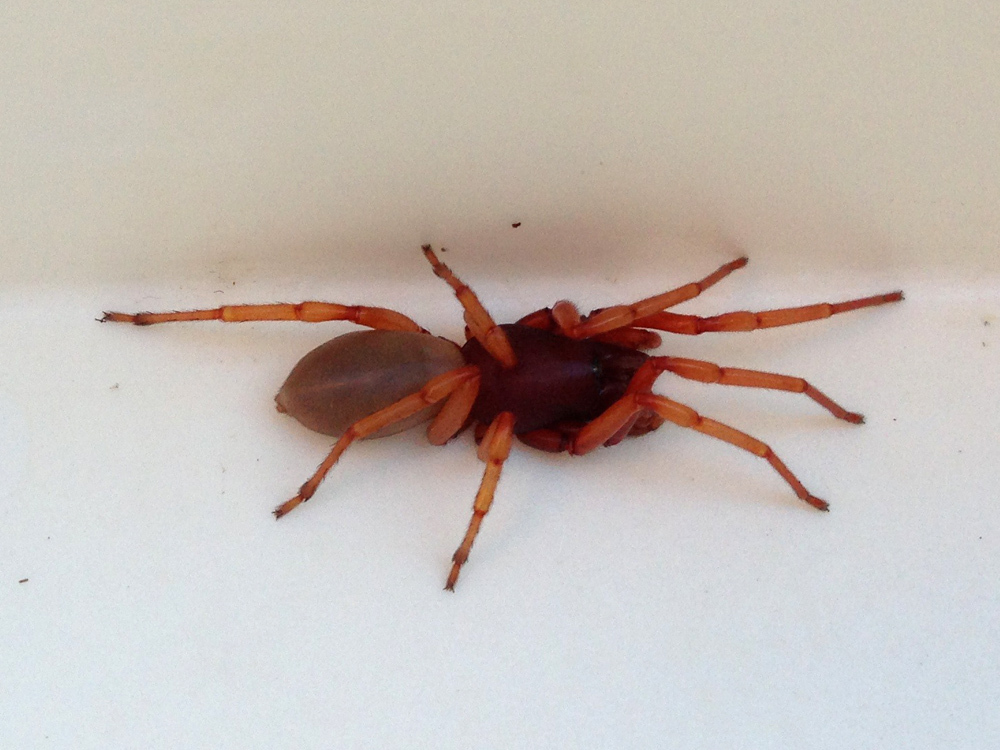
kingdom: Animalia
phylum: Arthropoda
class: Arachnida
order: Araneae
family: Dysderidae
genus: Dysdera
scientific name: Dysdera crocata
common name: Woodlouse spider
